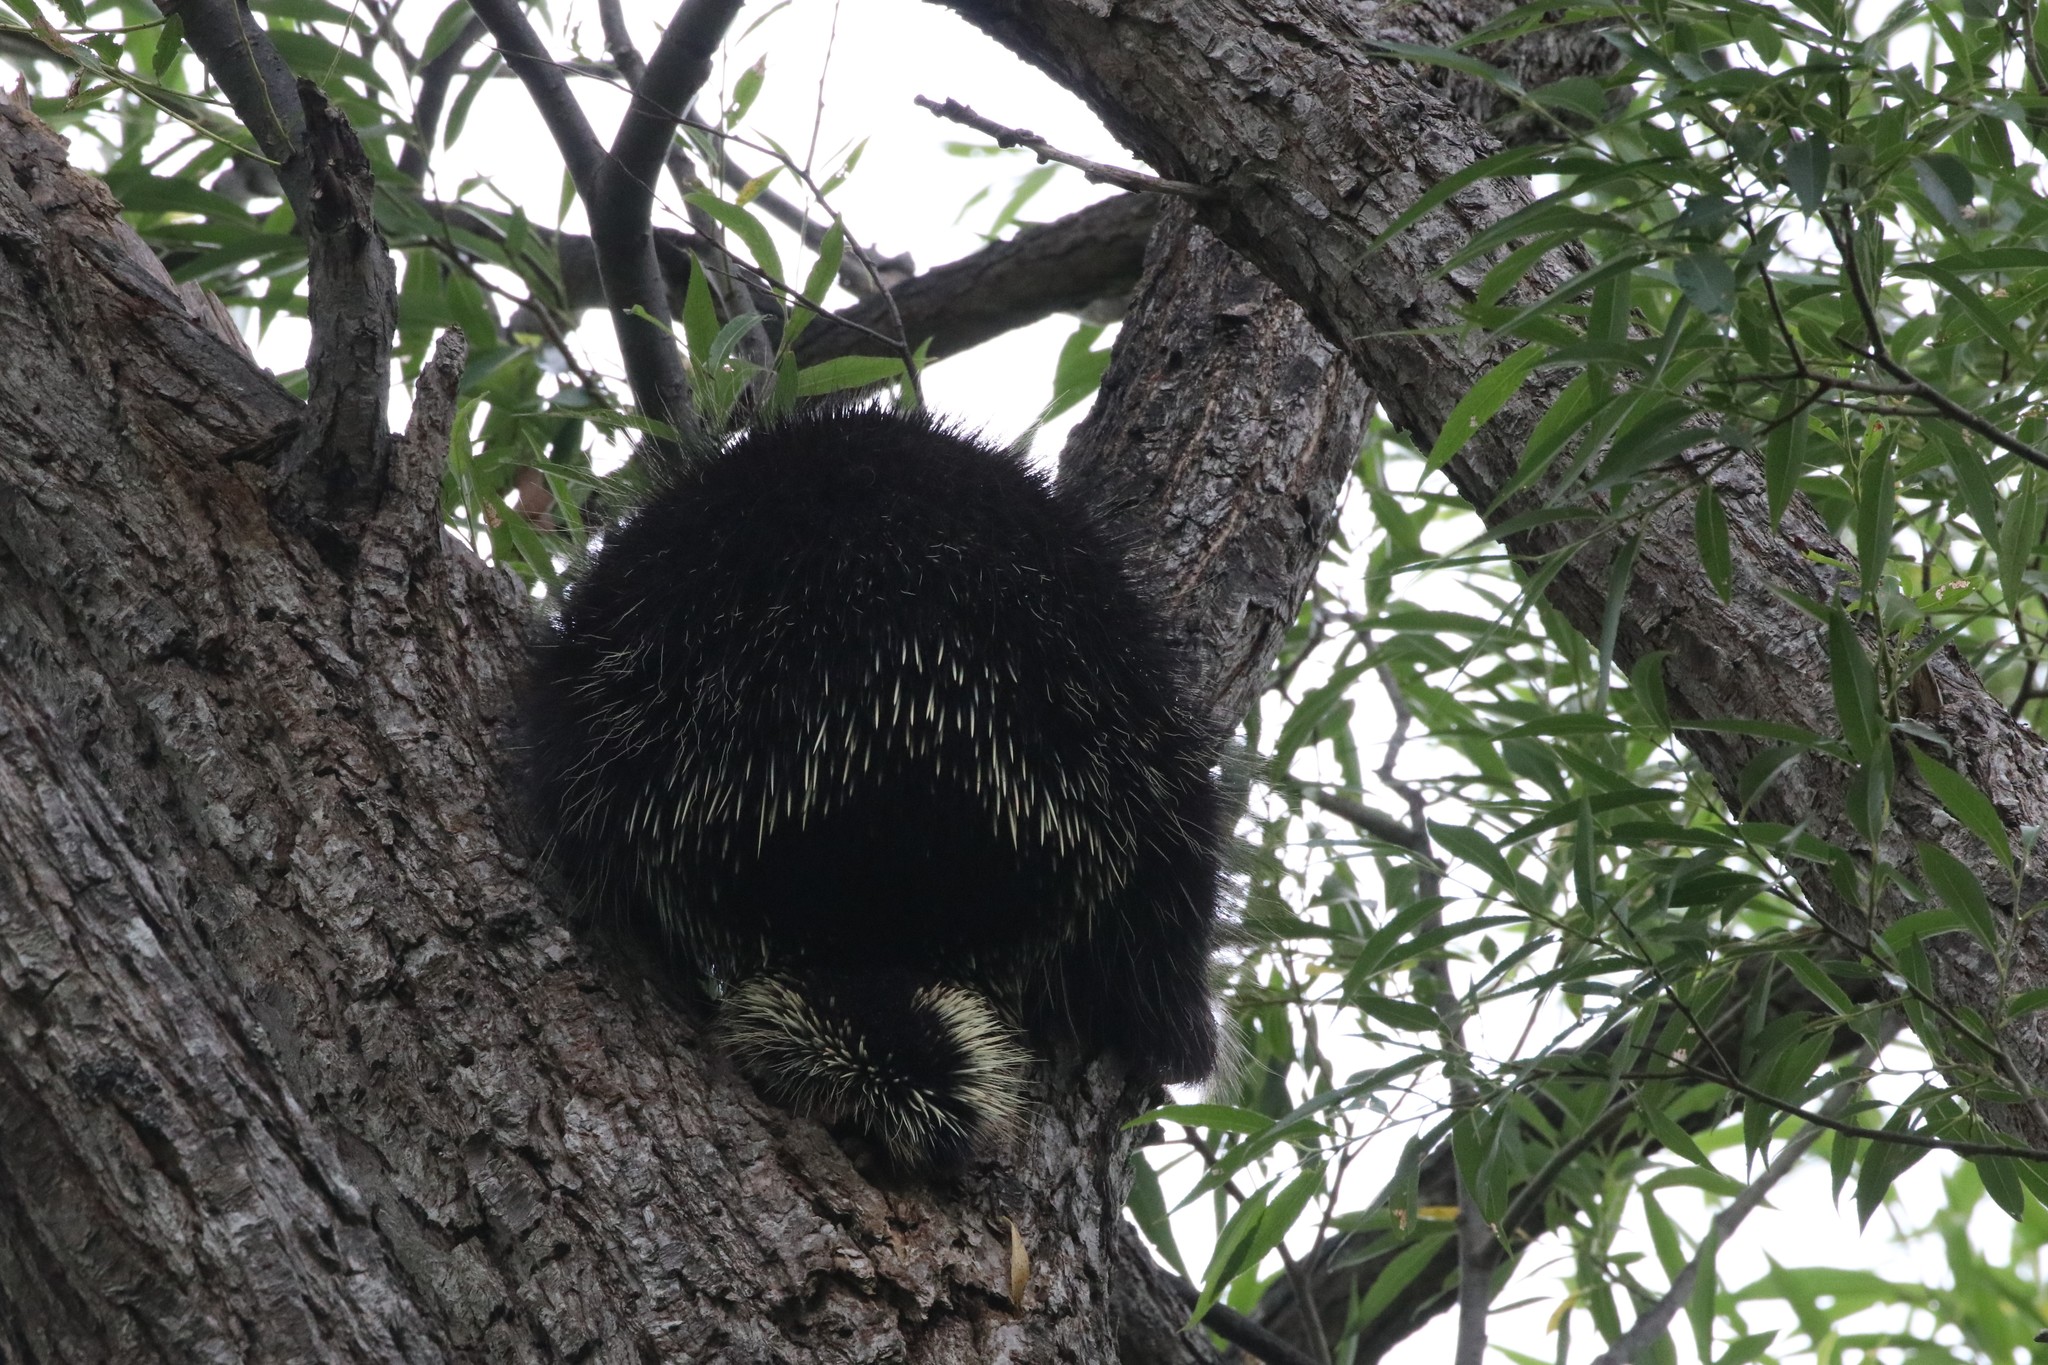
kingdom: Animalia
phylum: Chordata
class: Mammalia
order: Rodentia
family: Erethizontidae
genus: Erethizon
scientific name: Erethizon dorsatus
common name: North american porcupine
